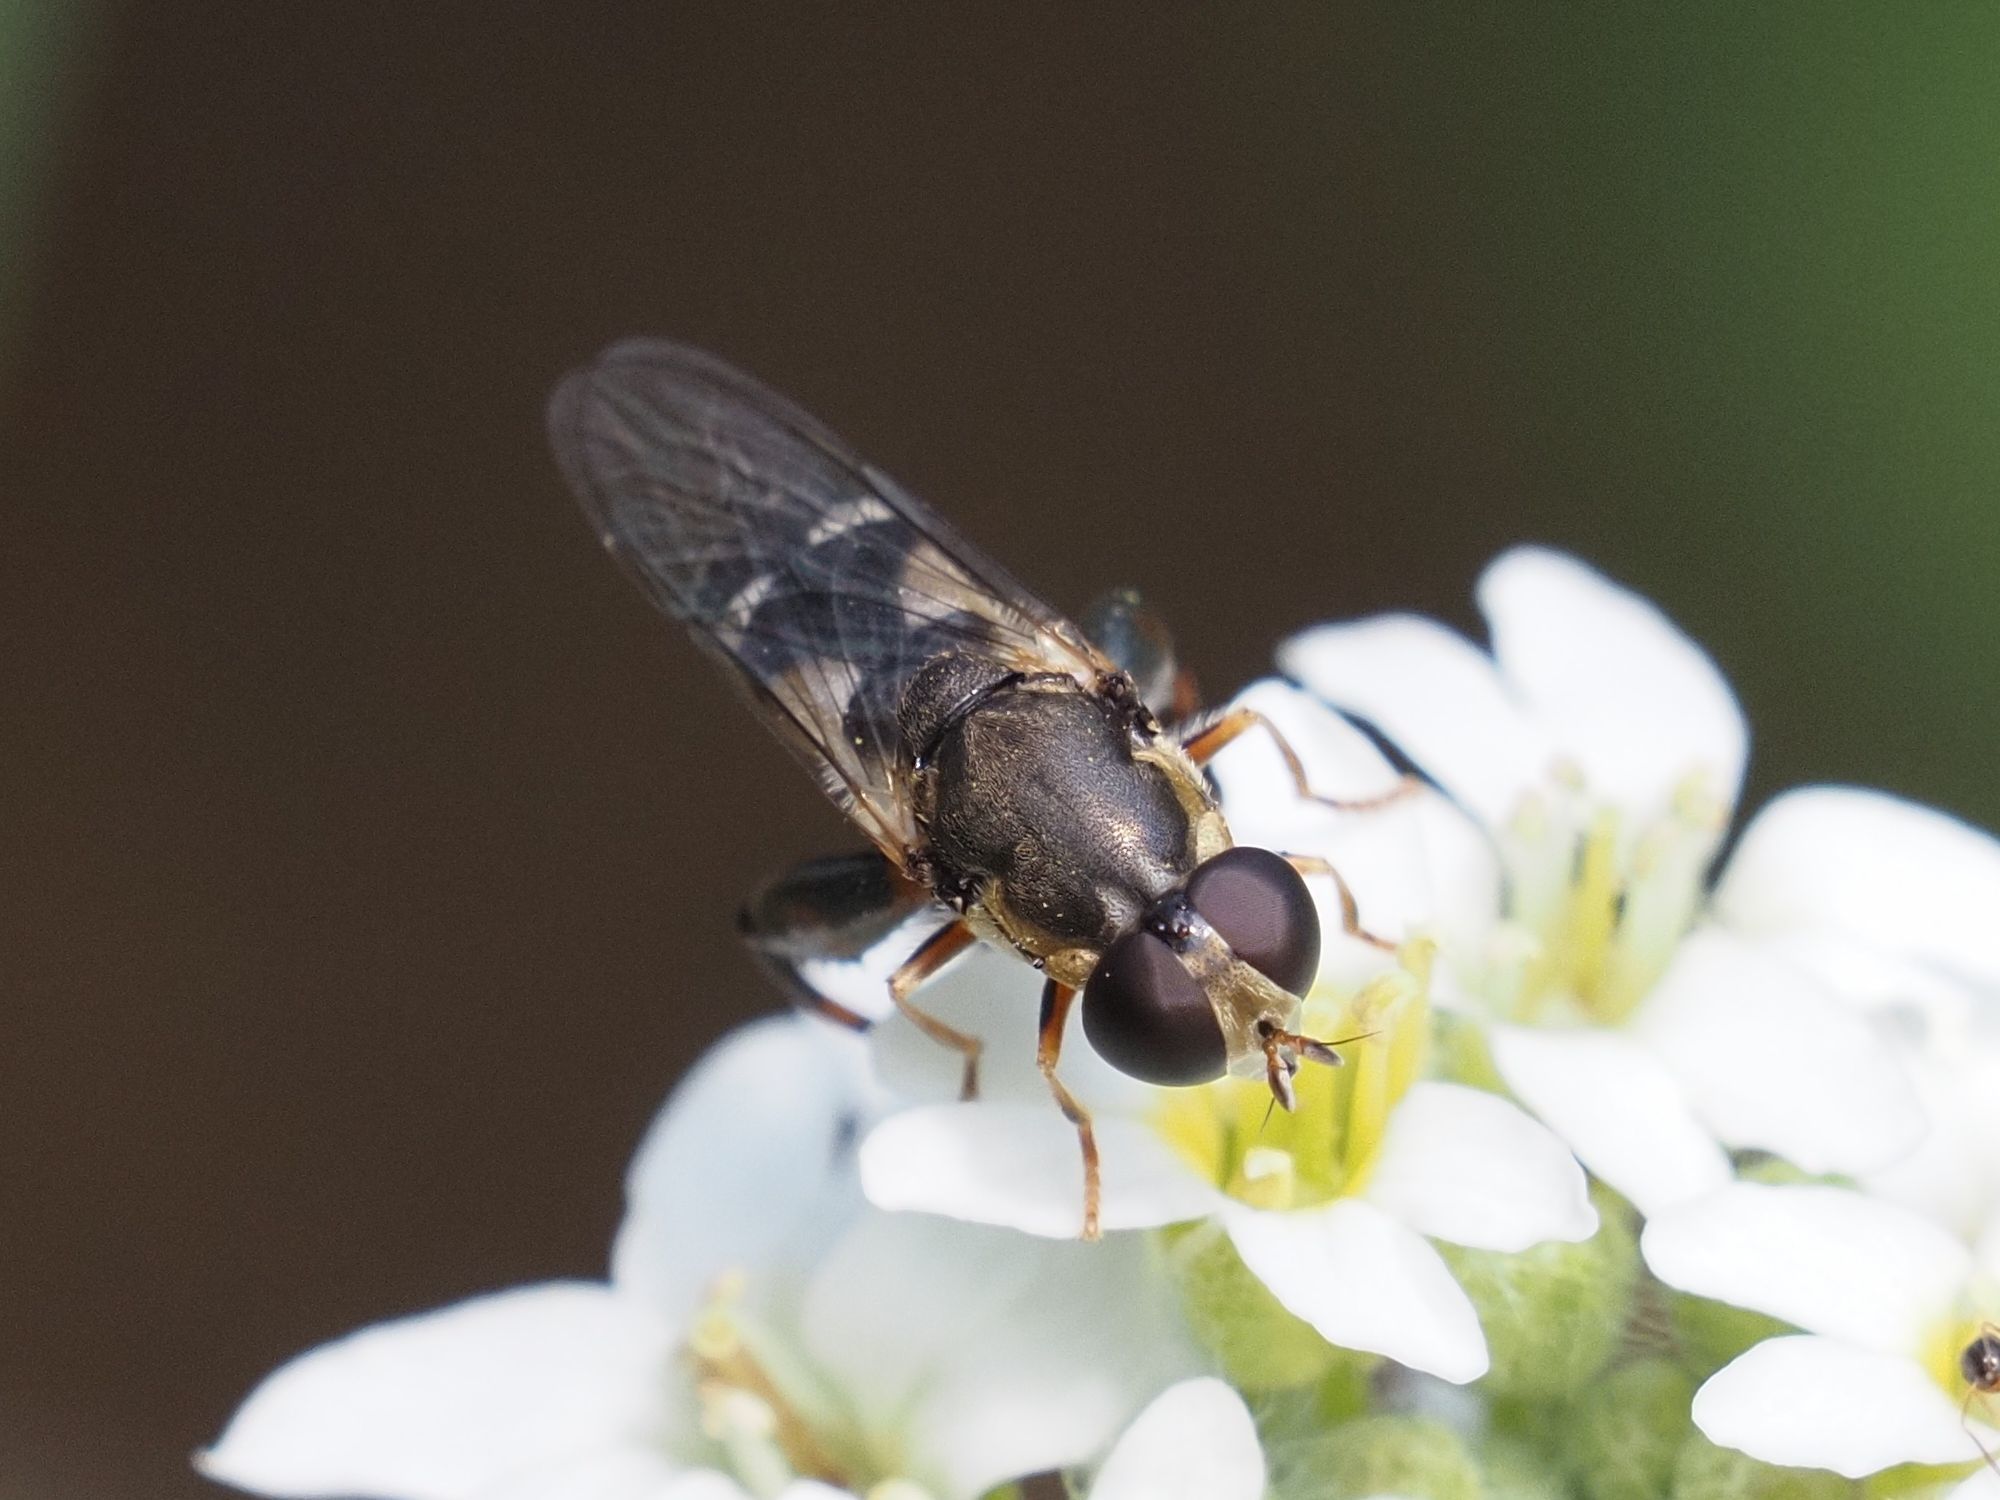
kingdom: Animalia
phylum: Arthropoda
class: Insecta
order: Diptera
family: Syrphidae
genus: Syritta
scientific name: Syritta pipiens
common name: Hover fly
